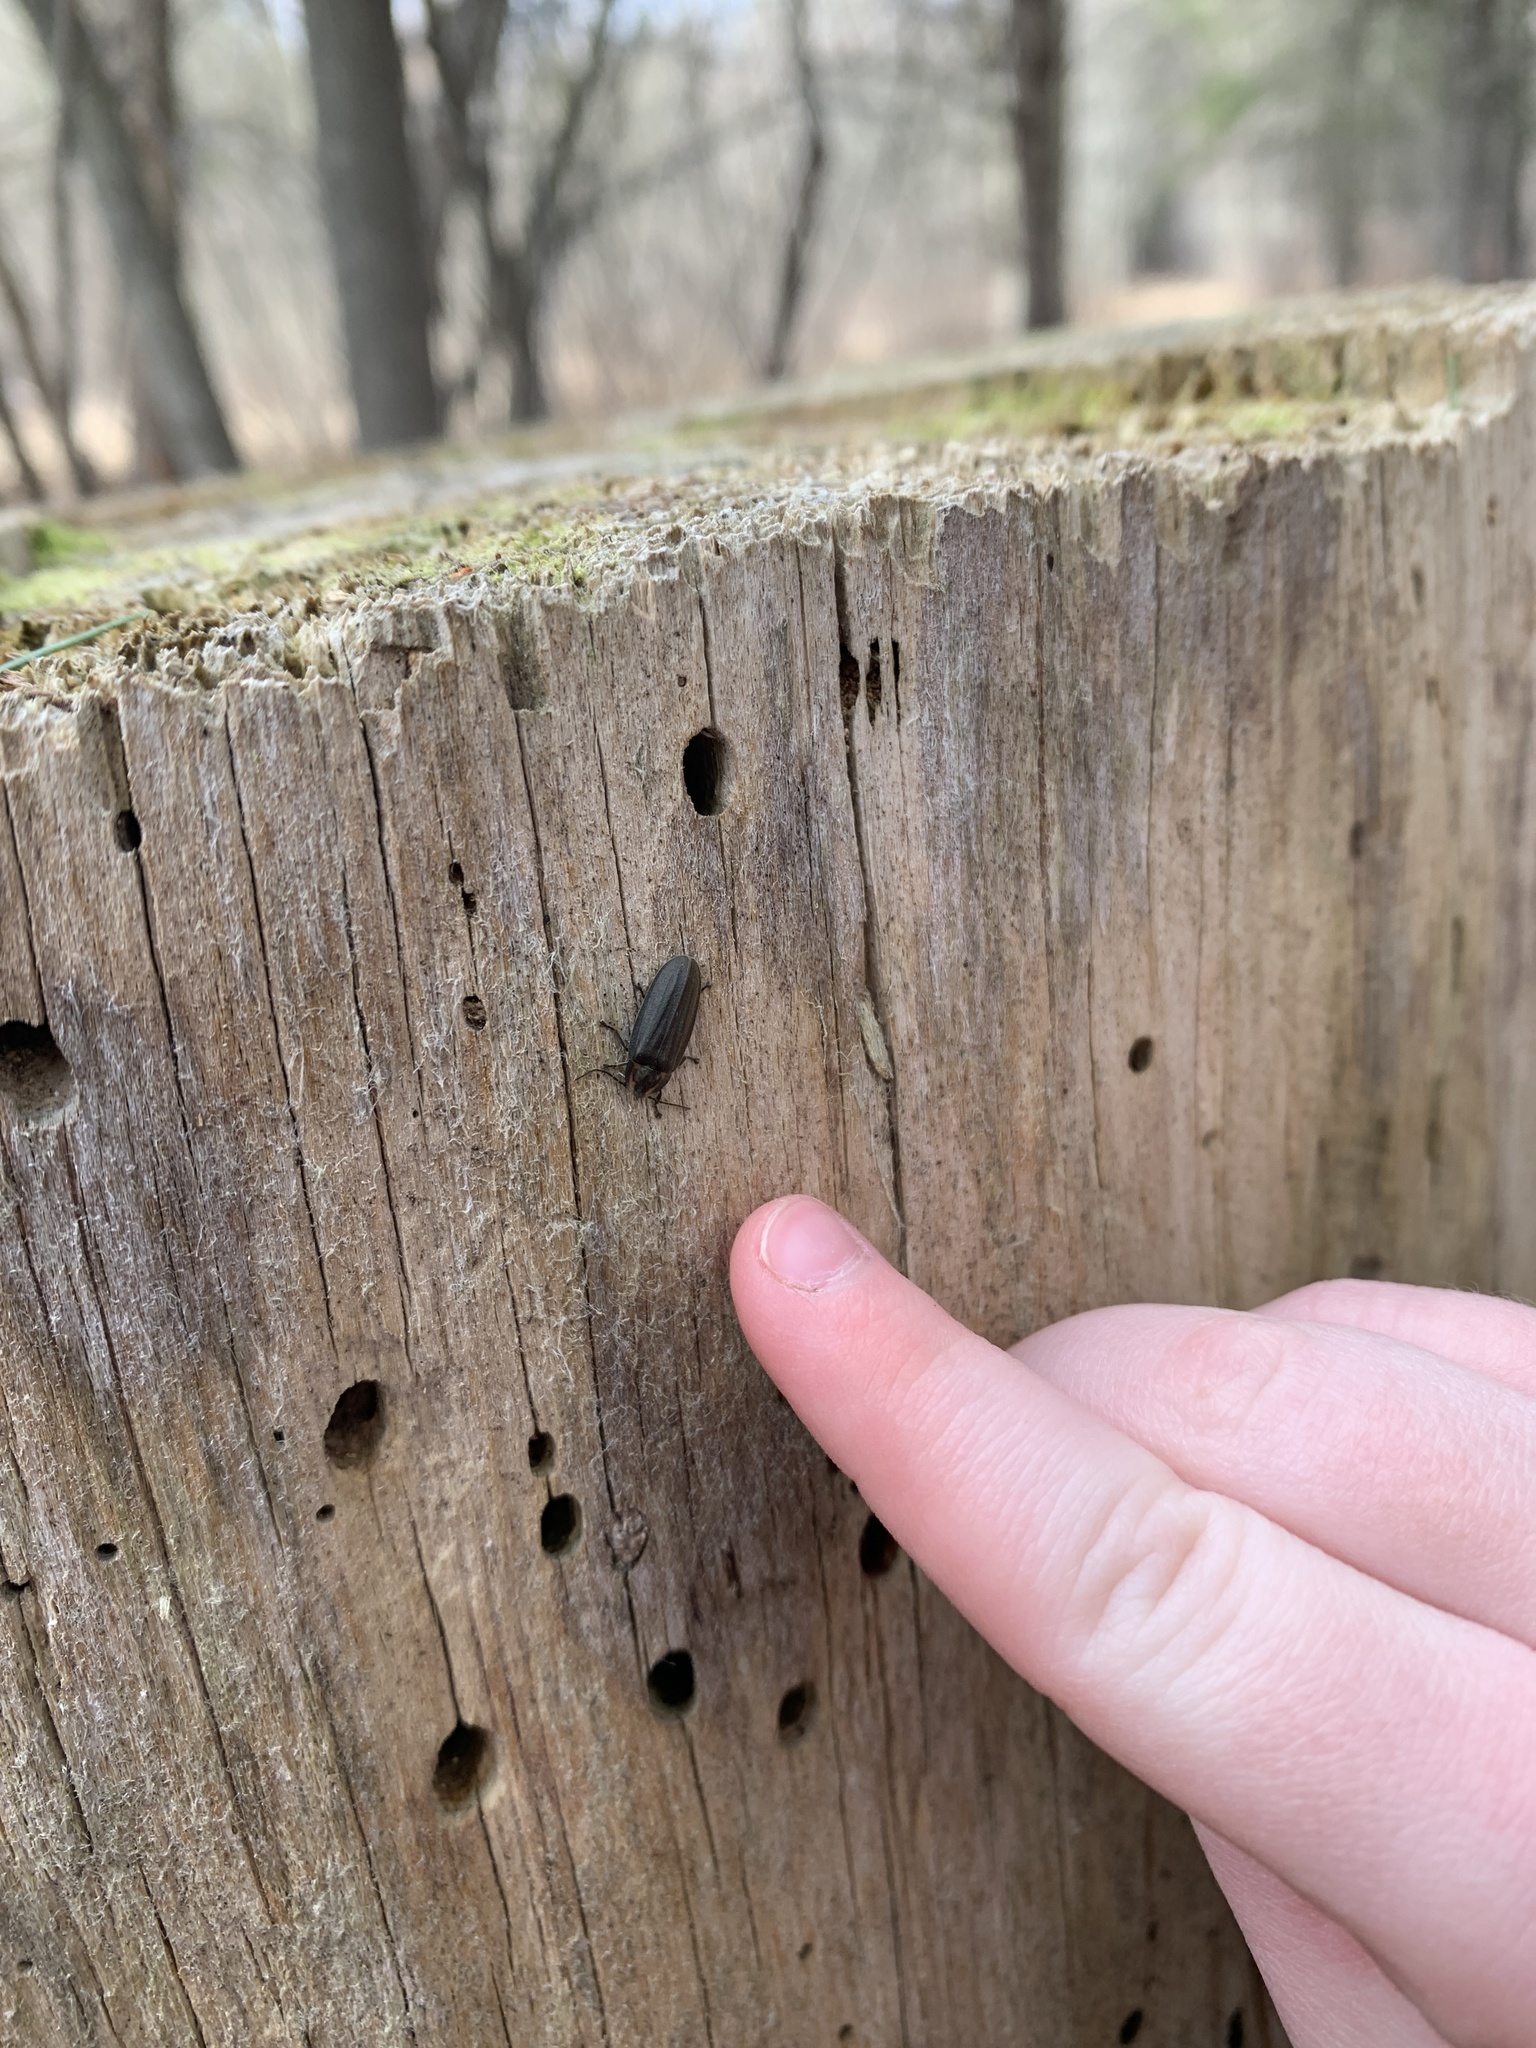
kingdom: Animalia
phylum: Arthropoda
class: Insecta
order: Coleoptera
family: Lampyridae
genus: Photinus
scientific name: Photinus corrusca
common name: Winter firefly
